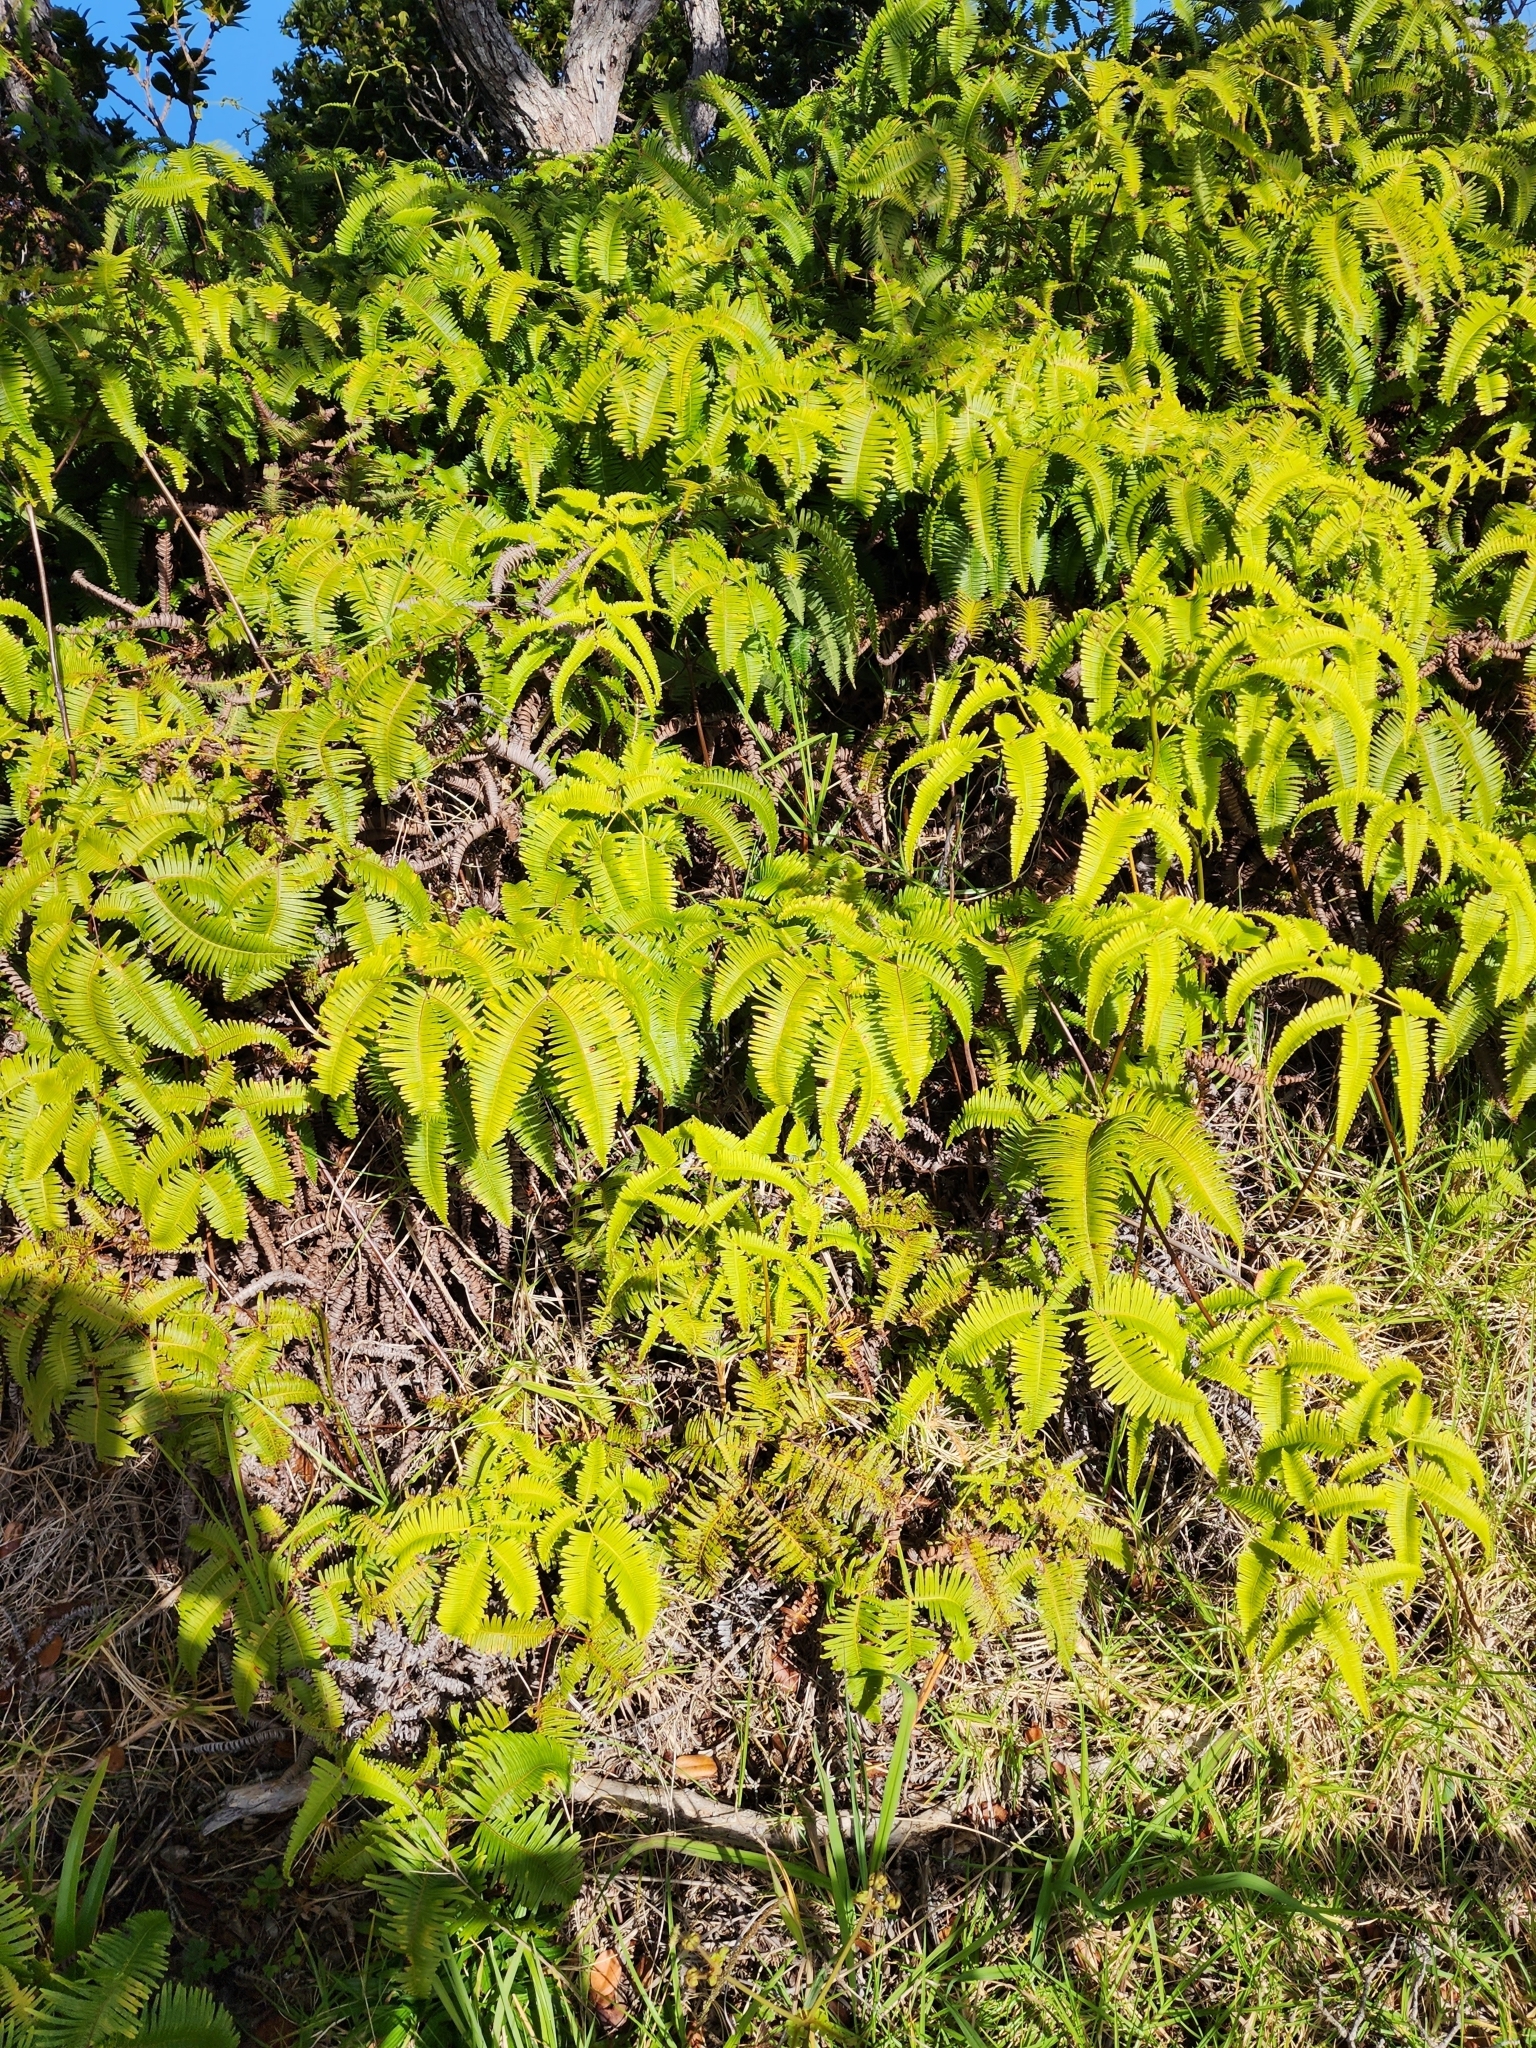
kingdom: Plantae
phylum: Tracheophyta
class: Polypodiopsida
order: Gleicheniales
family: Gleicheniaceae
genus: Dicranopteris
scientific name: Dicranopteris linearis
